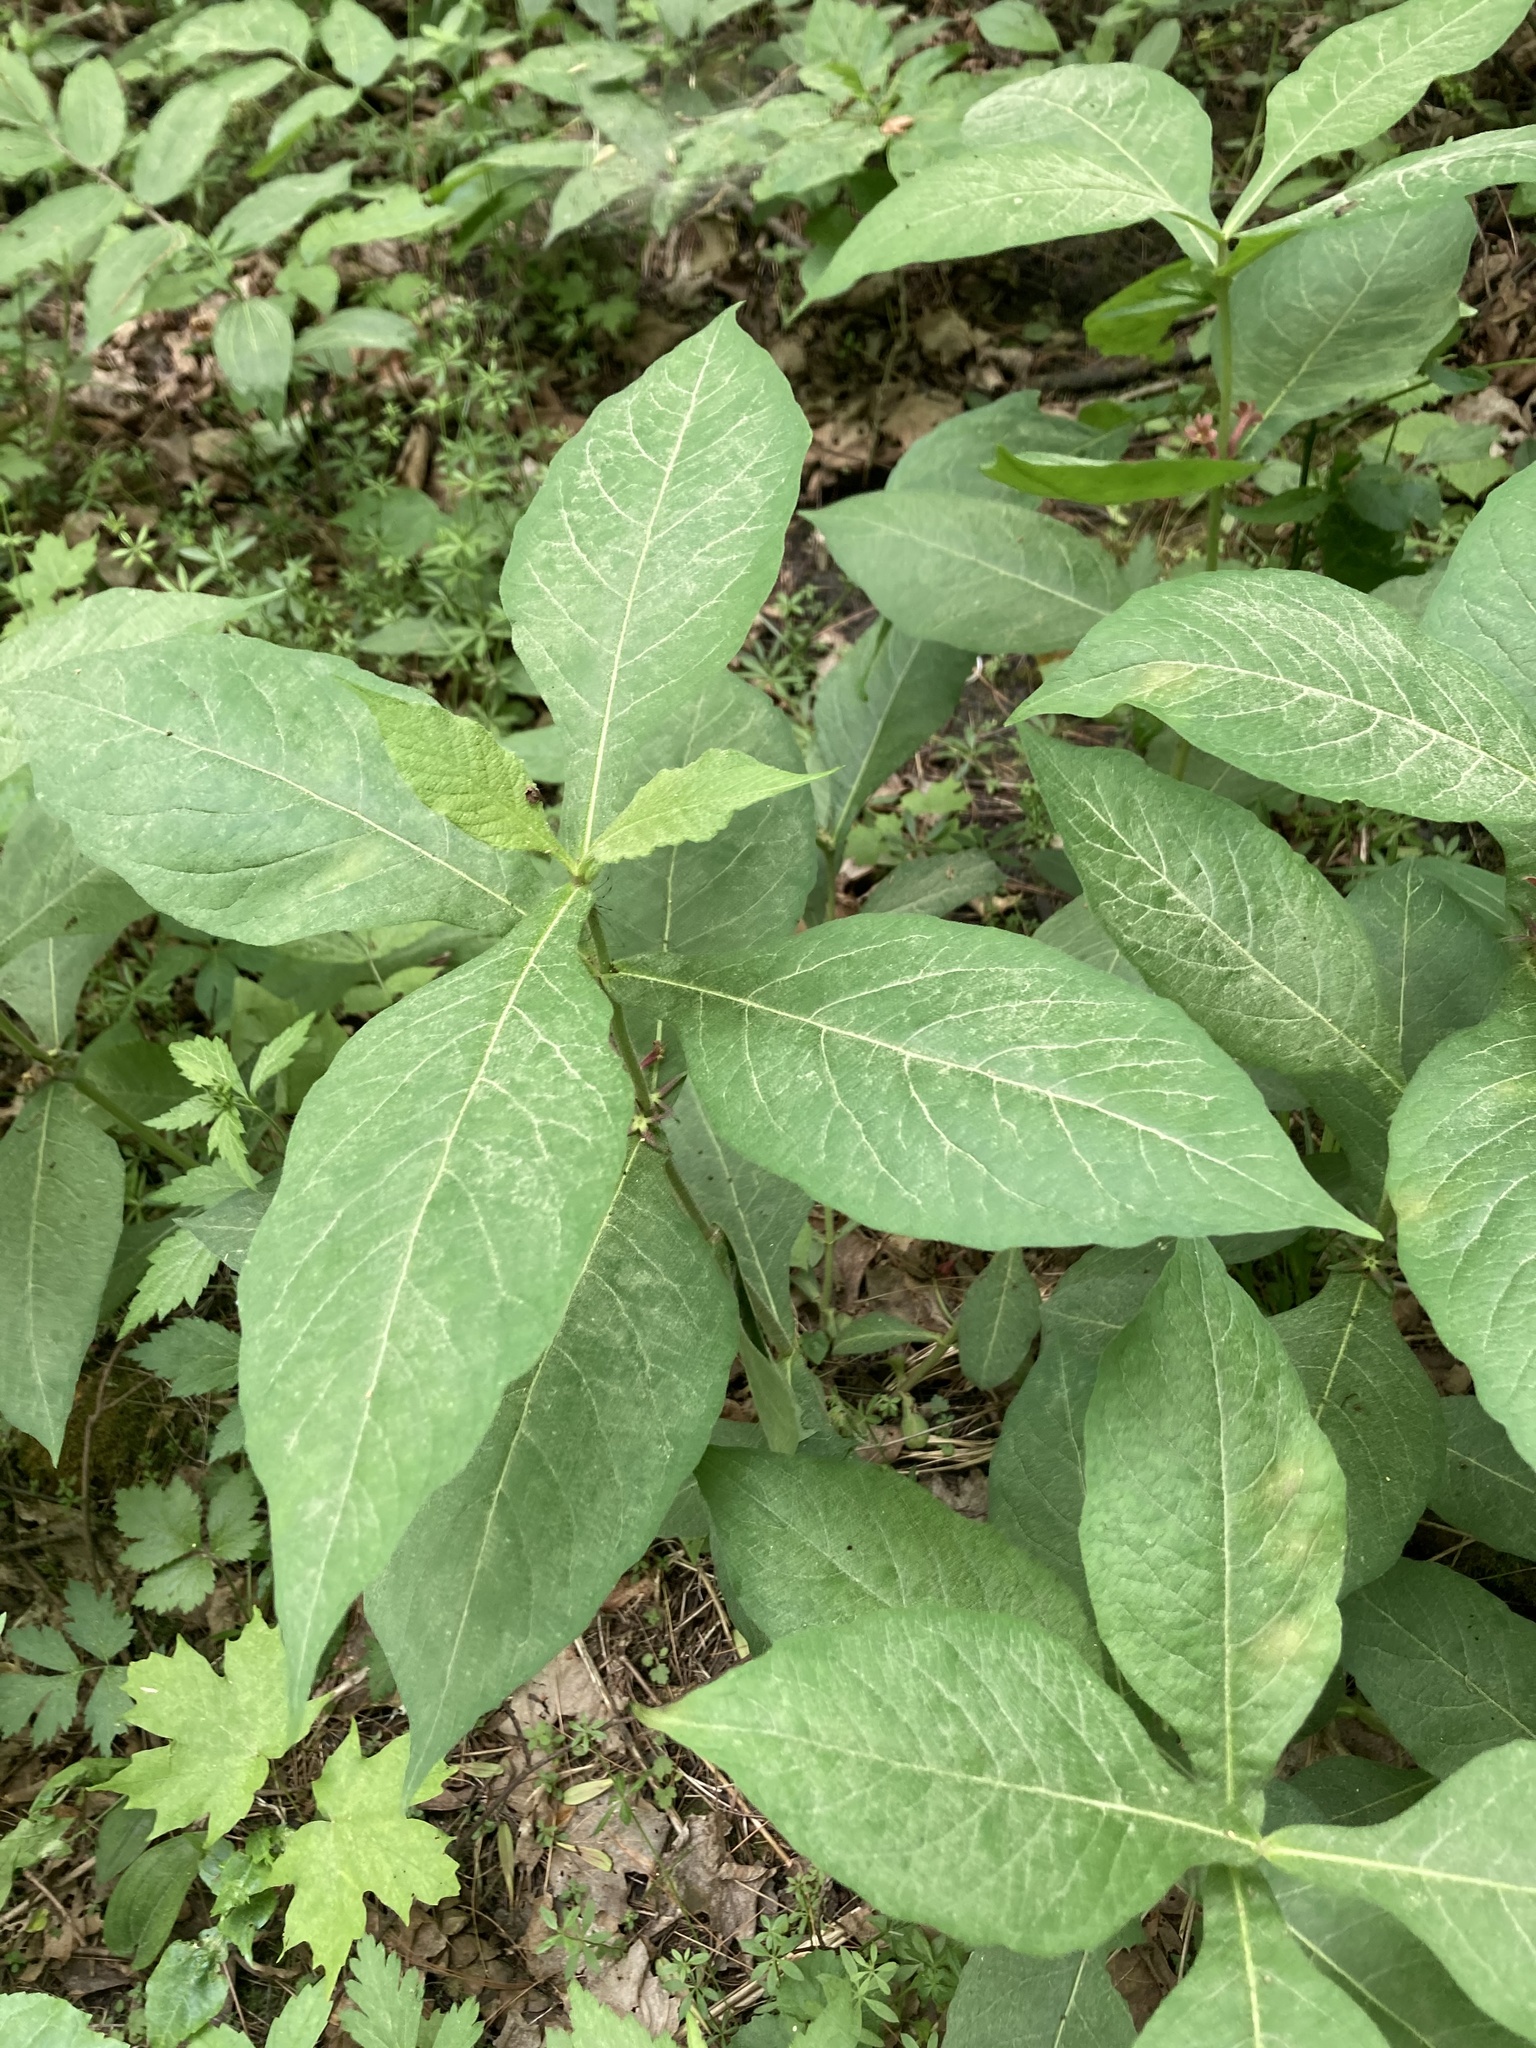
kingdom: Plantae
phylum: Tracheophyta
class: Magnoliopsida
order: Dipsacales
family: Caprifoliaceae
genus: Triosteum
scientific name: Triosteum aurantiacum
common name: Coffee tinker's-weed
